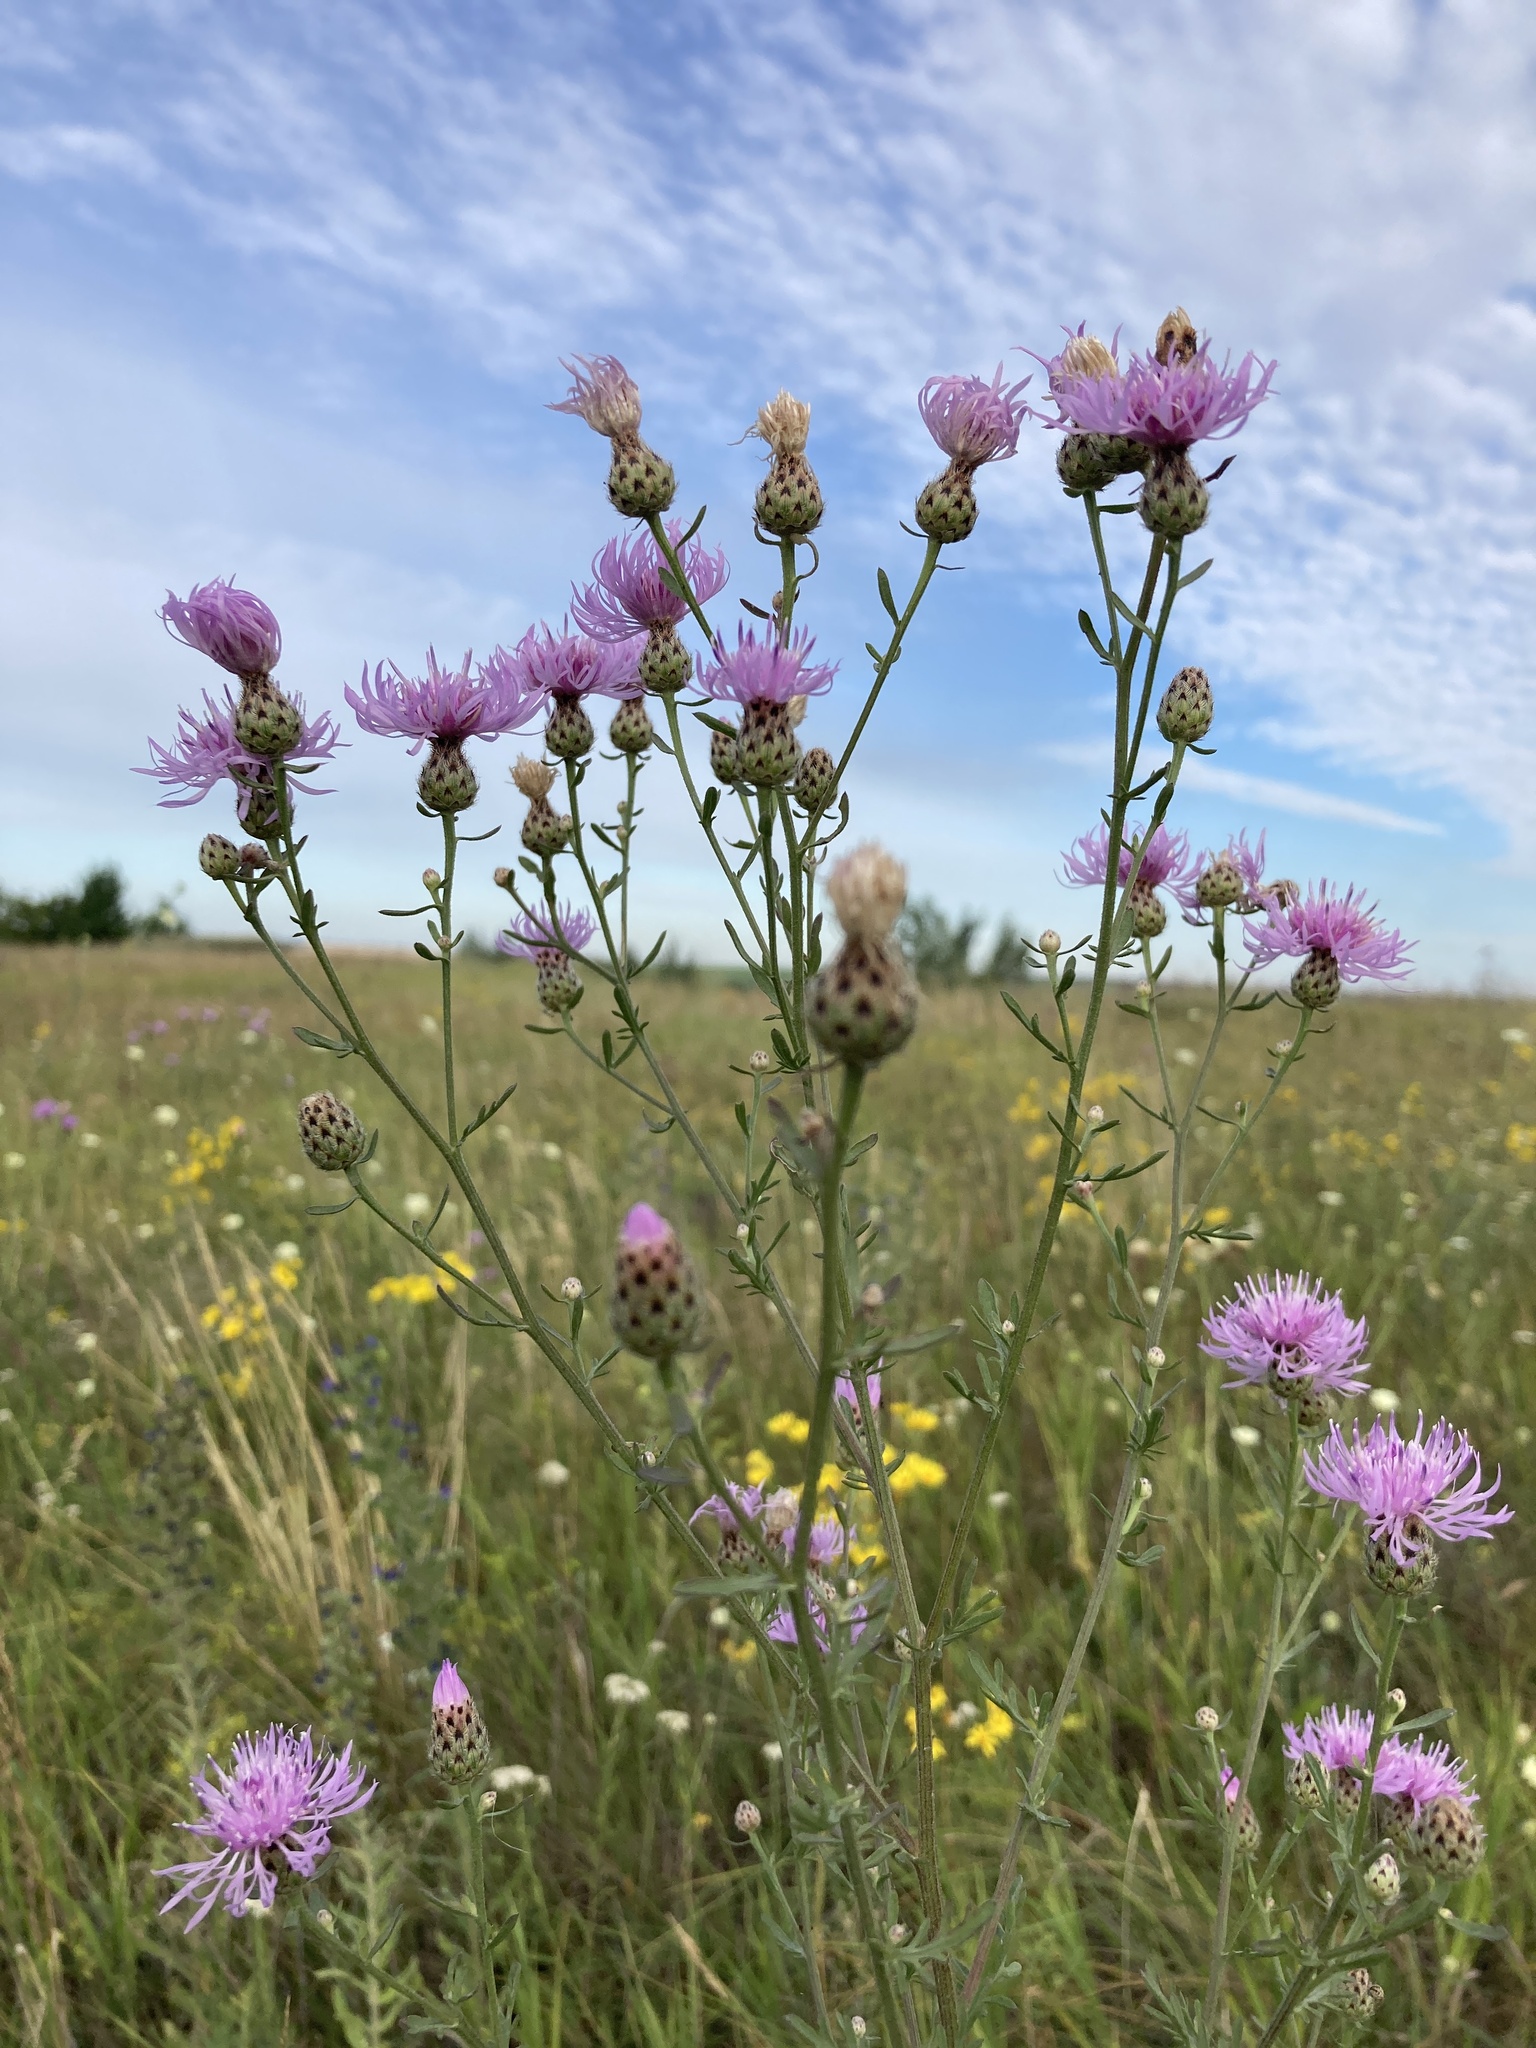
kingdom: Plantae
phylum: Tracheophyta
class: Magnoliopsida
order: Asterales
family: Asteraceae
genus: Centaurea
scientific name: Centaurea stoebe
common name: Spotted knapweed
